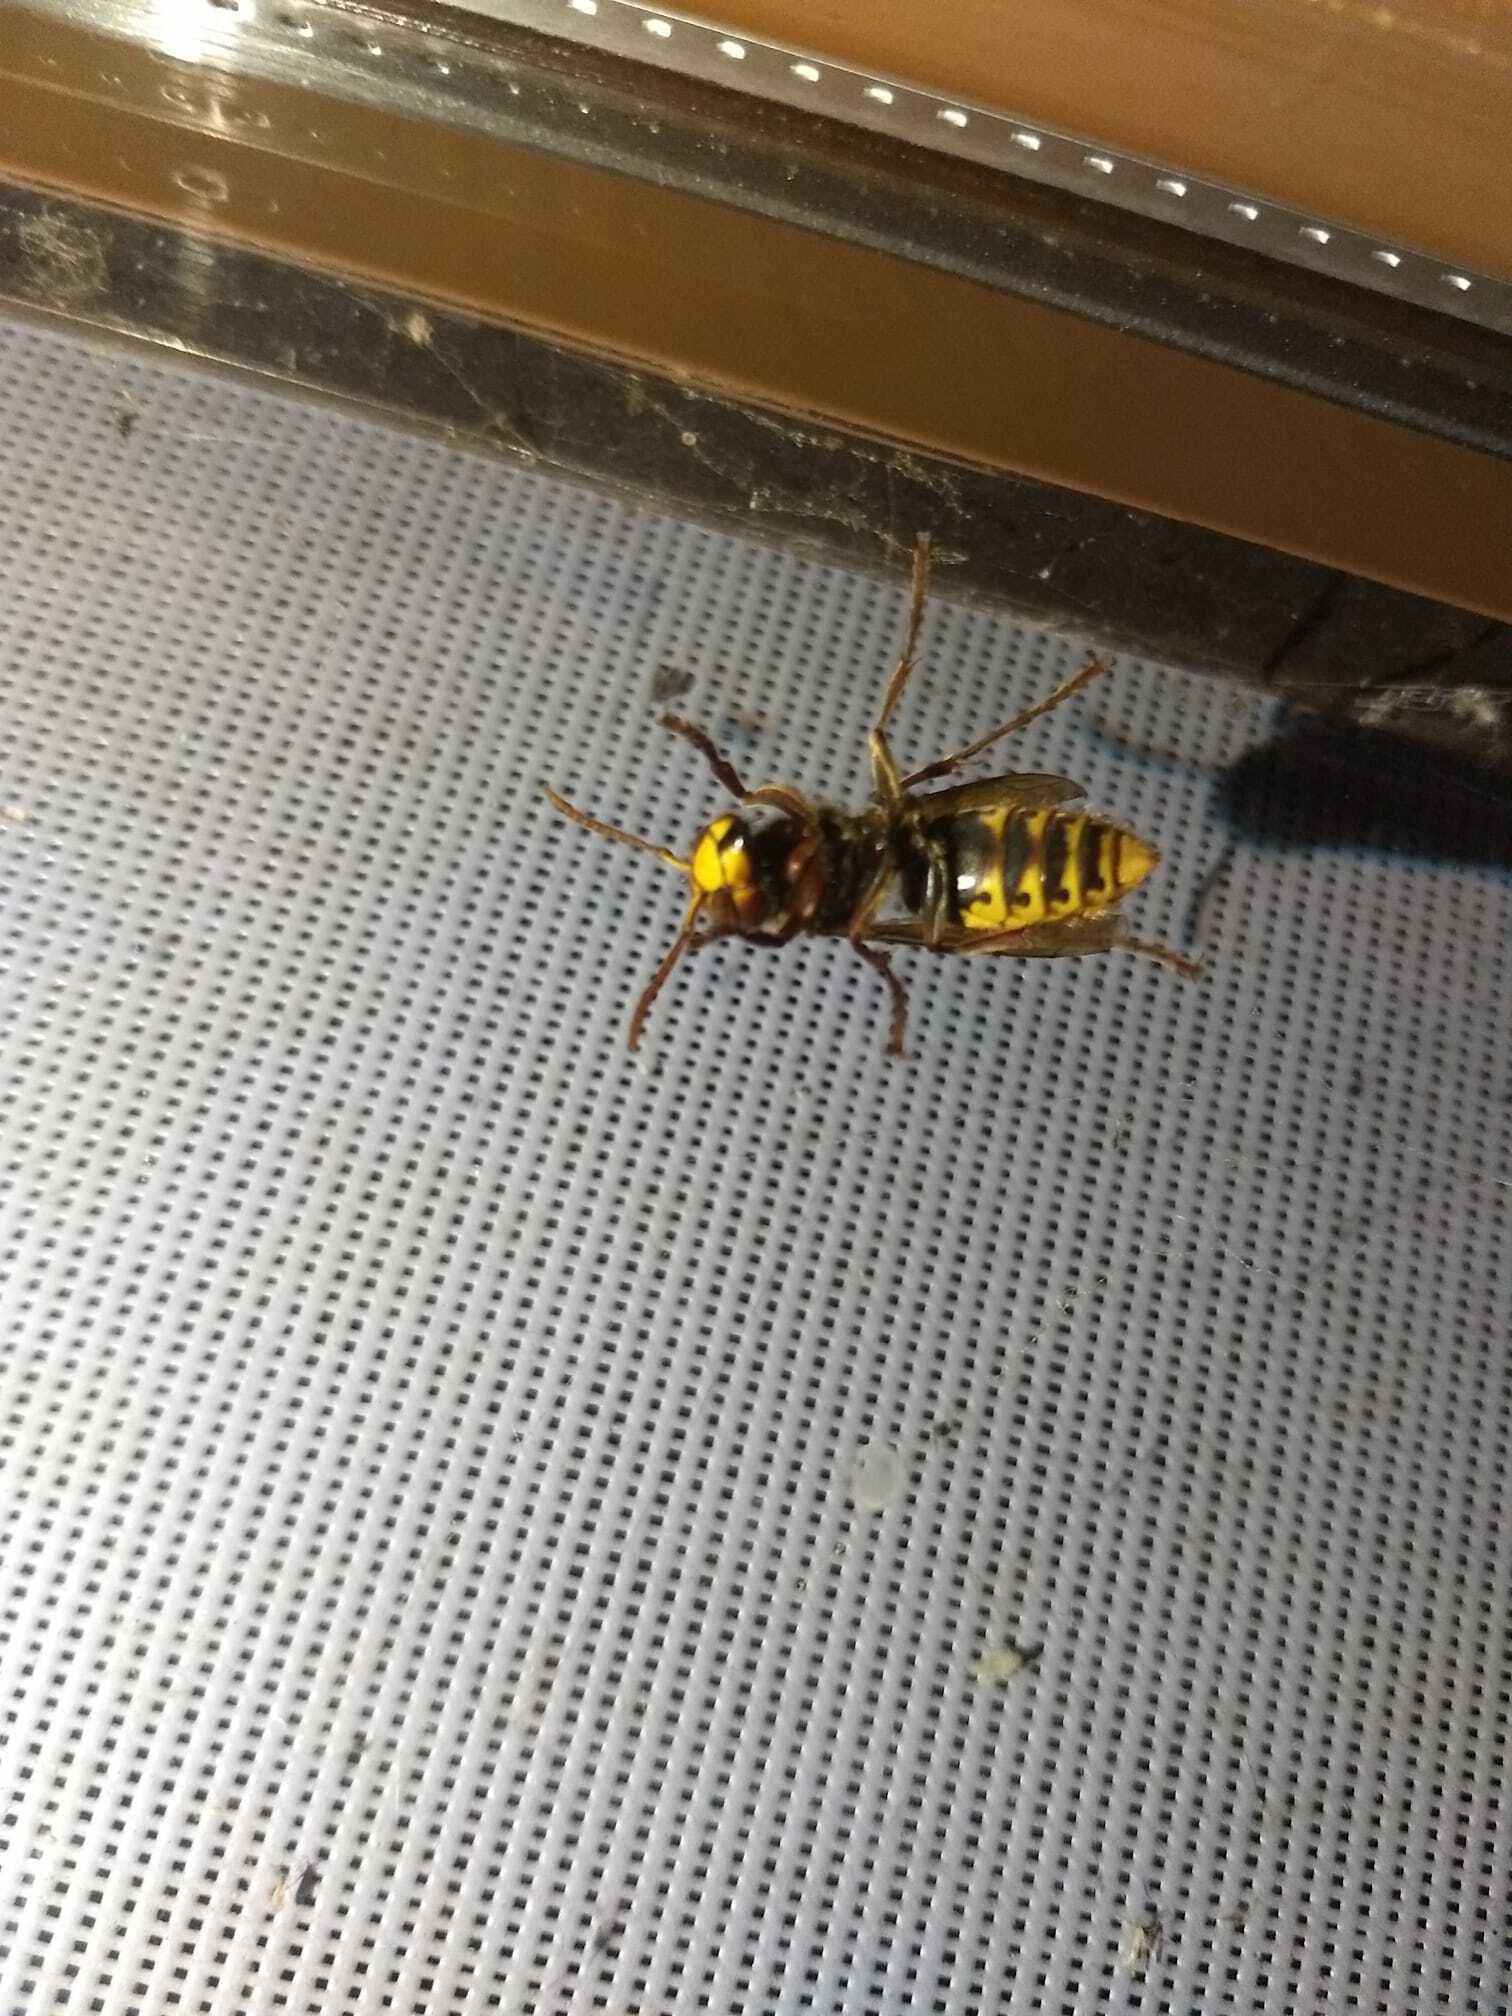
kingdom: Animalia
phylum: Arthropoda
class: Insecta
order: Hymenoptera
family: Vespidae
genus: Vespa
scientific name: Vespa crabro
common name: Hornet
